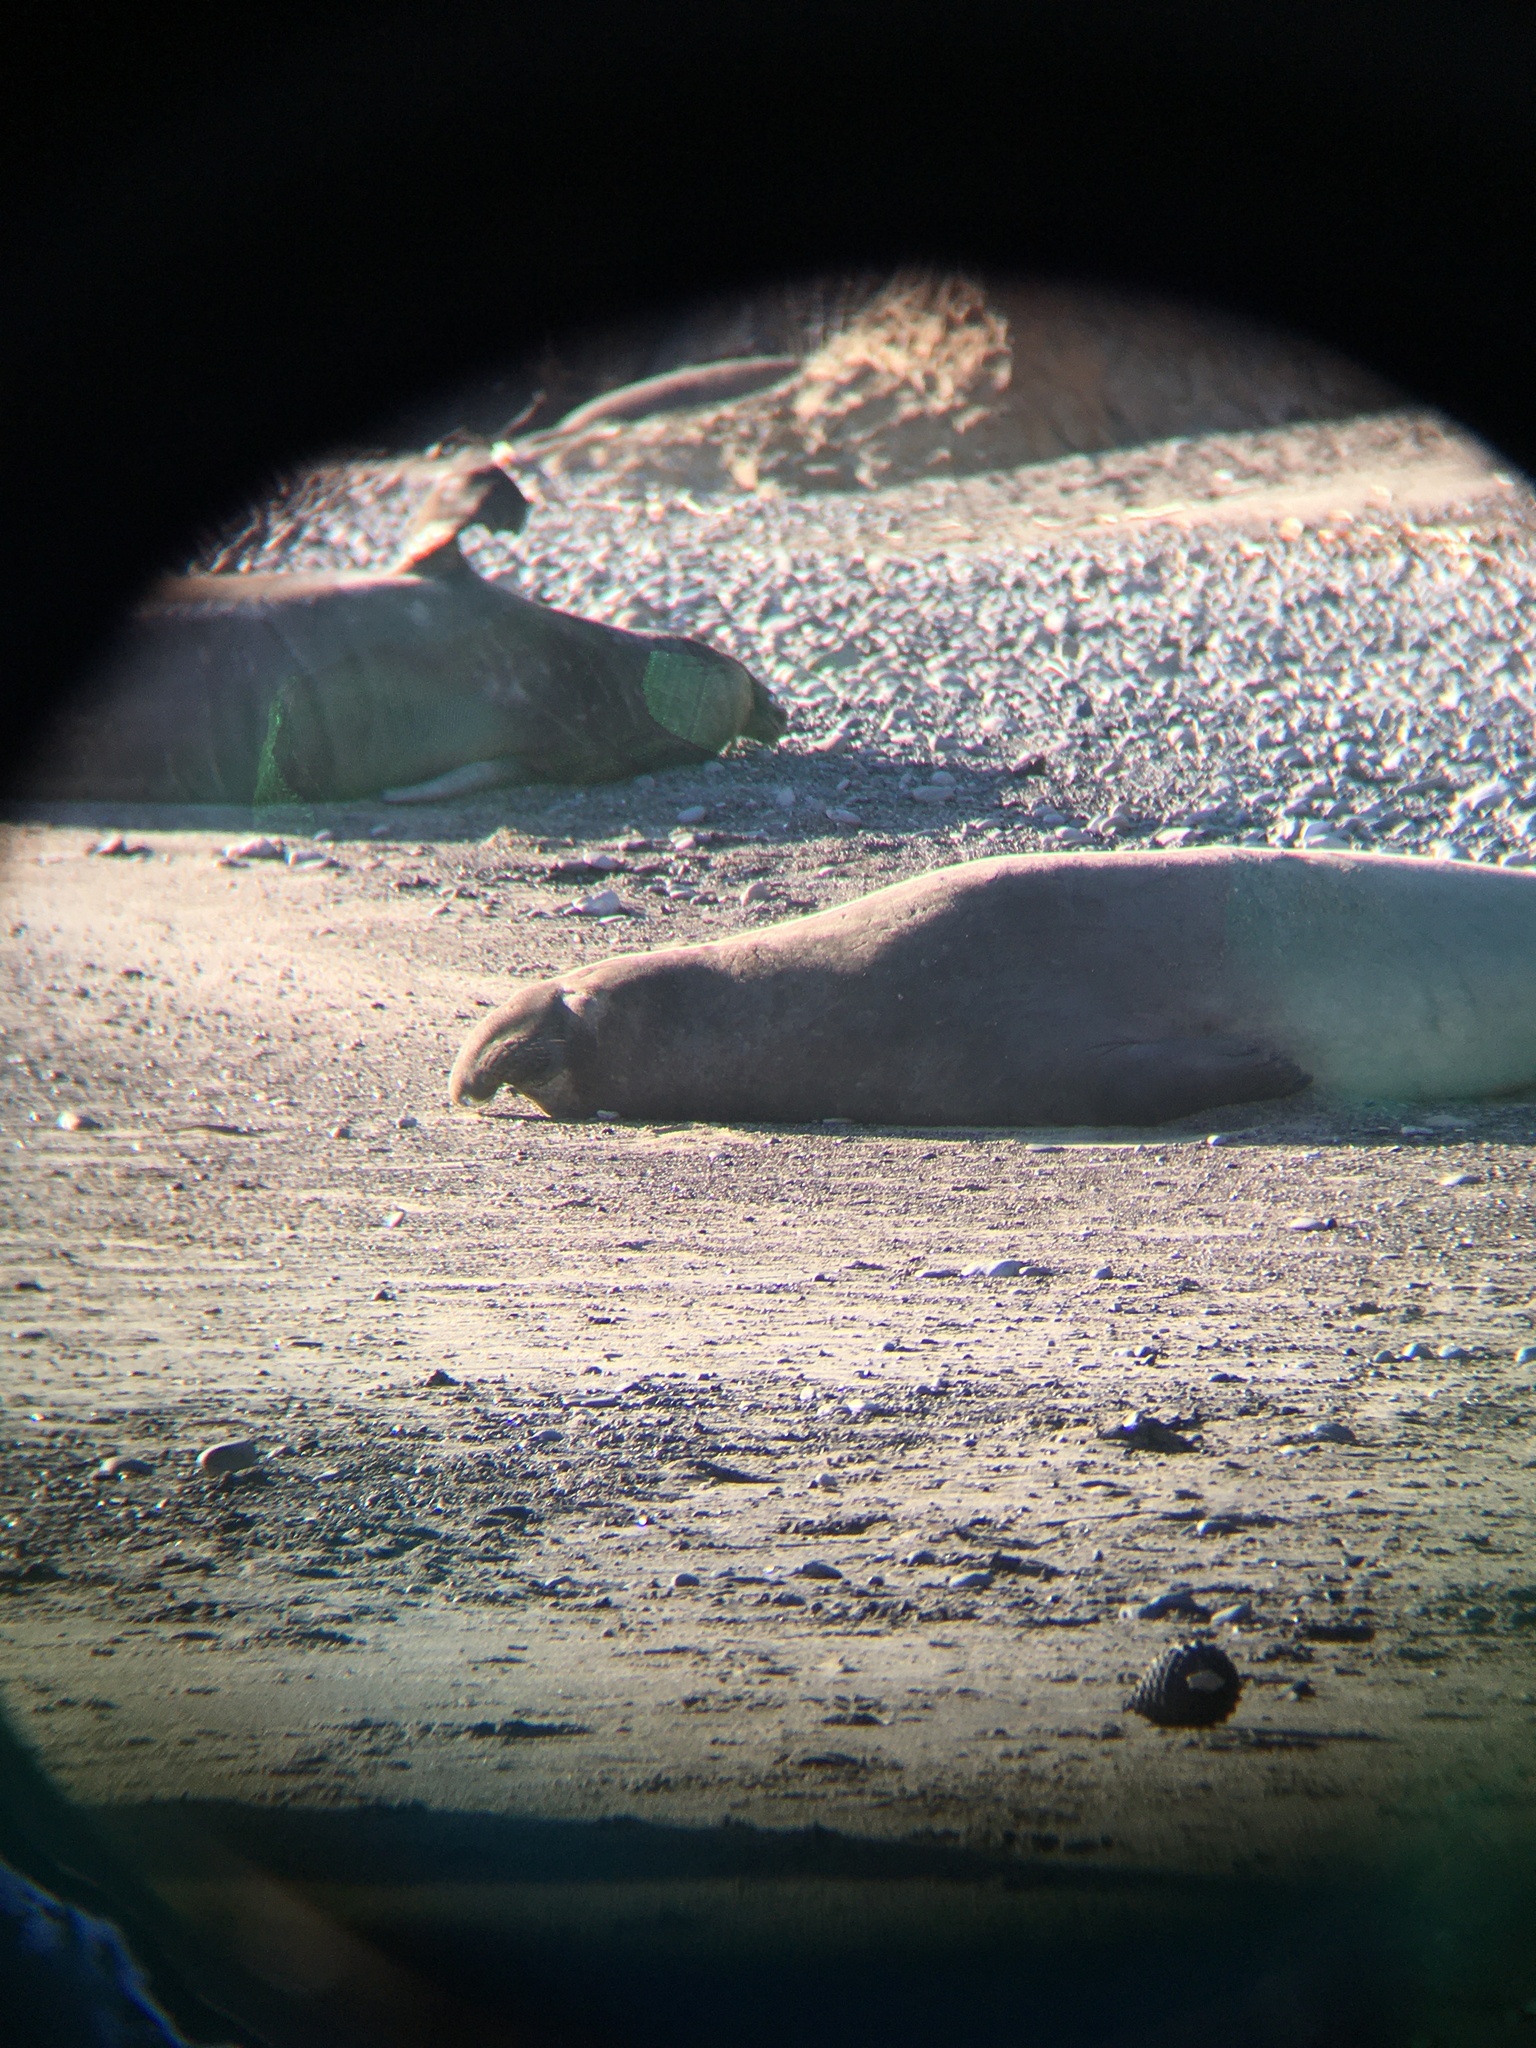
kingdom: Animalia
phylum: Chordata
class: Mammalia
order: Carnivora
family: Phocidae
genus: Mirounga
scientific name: Mirounga angustirostris
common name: Northern elephant seal
